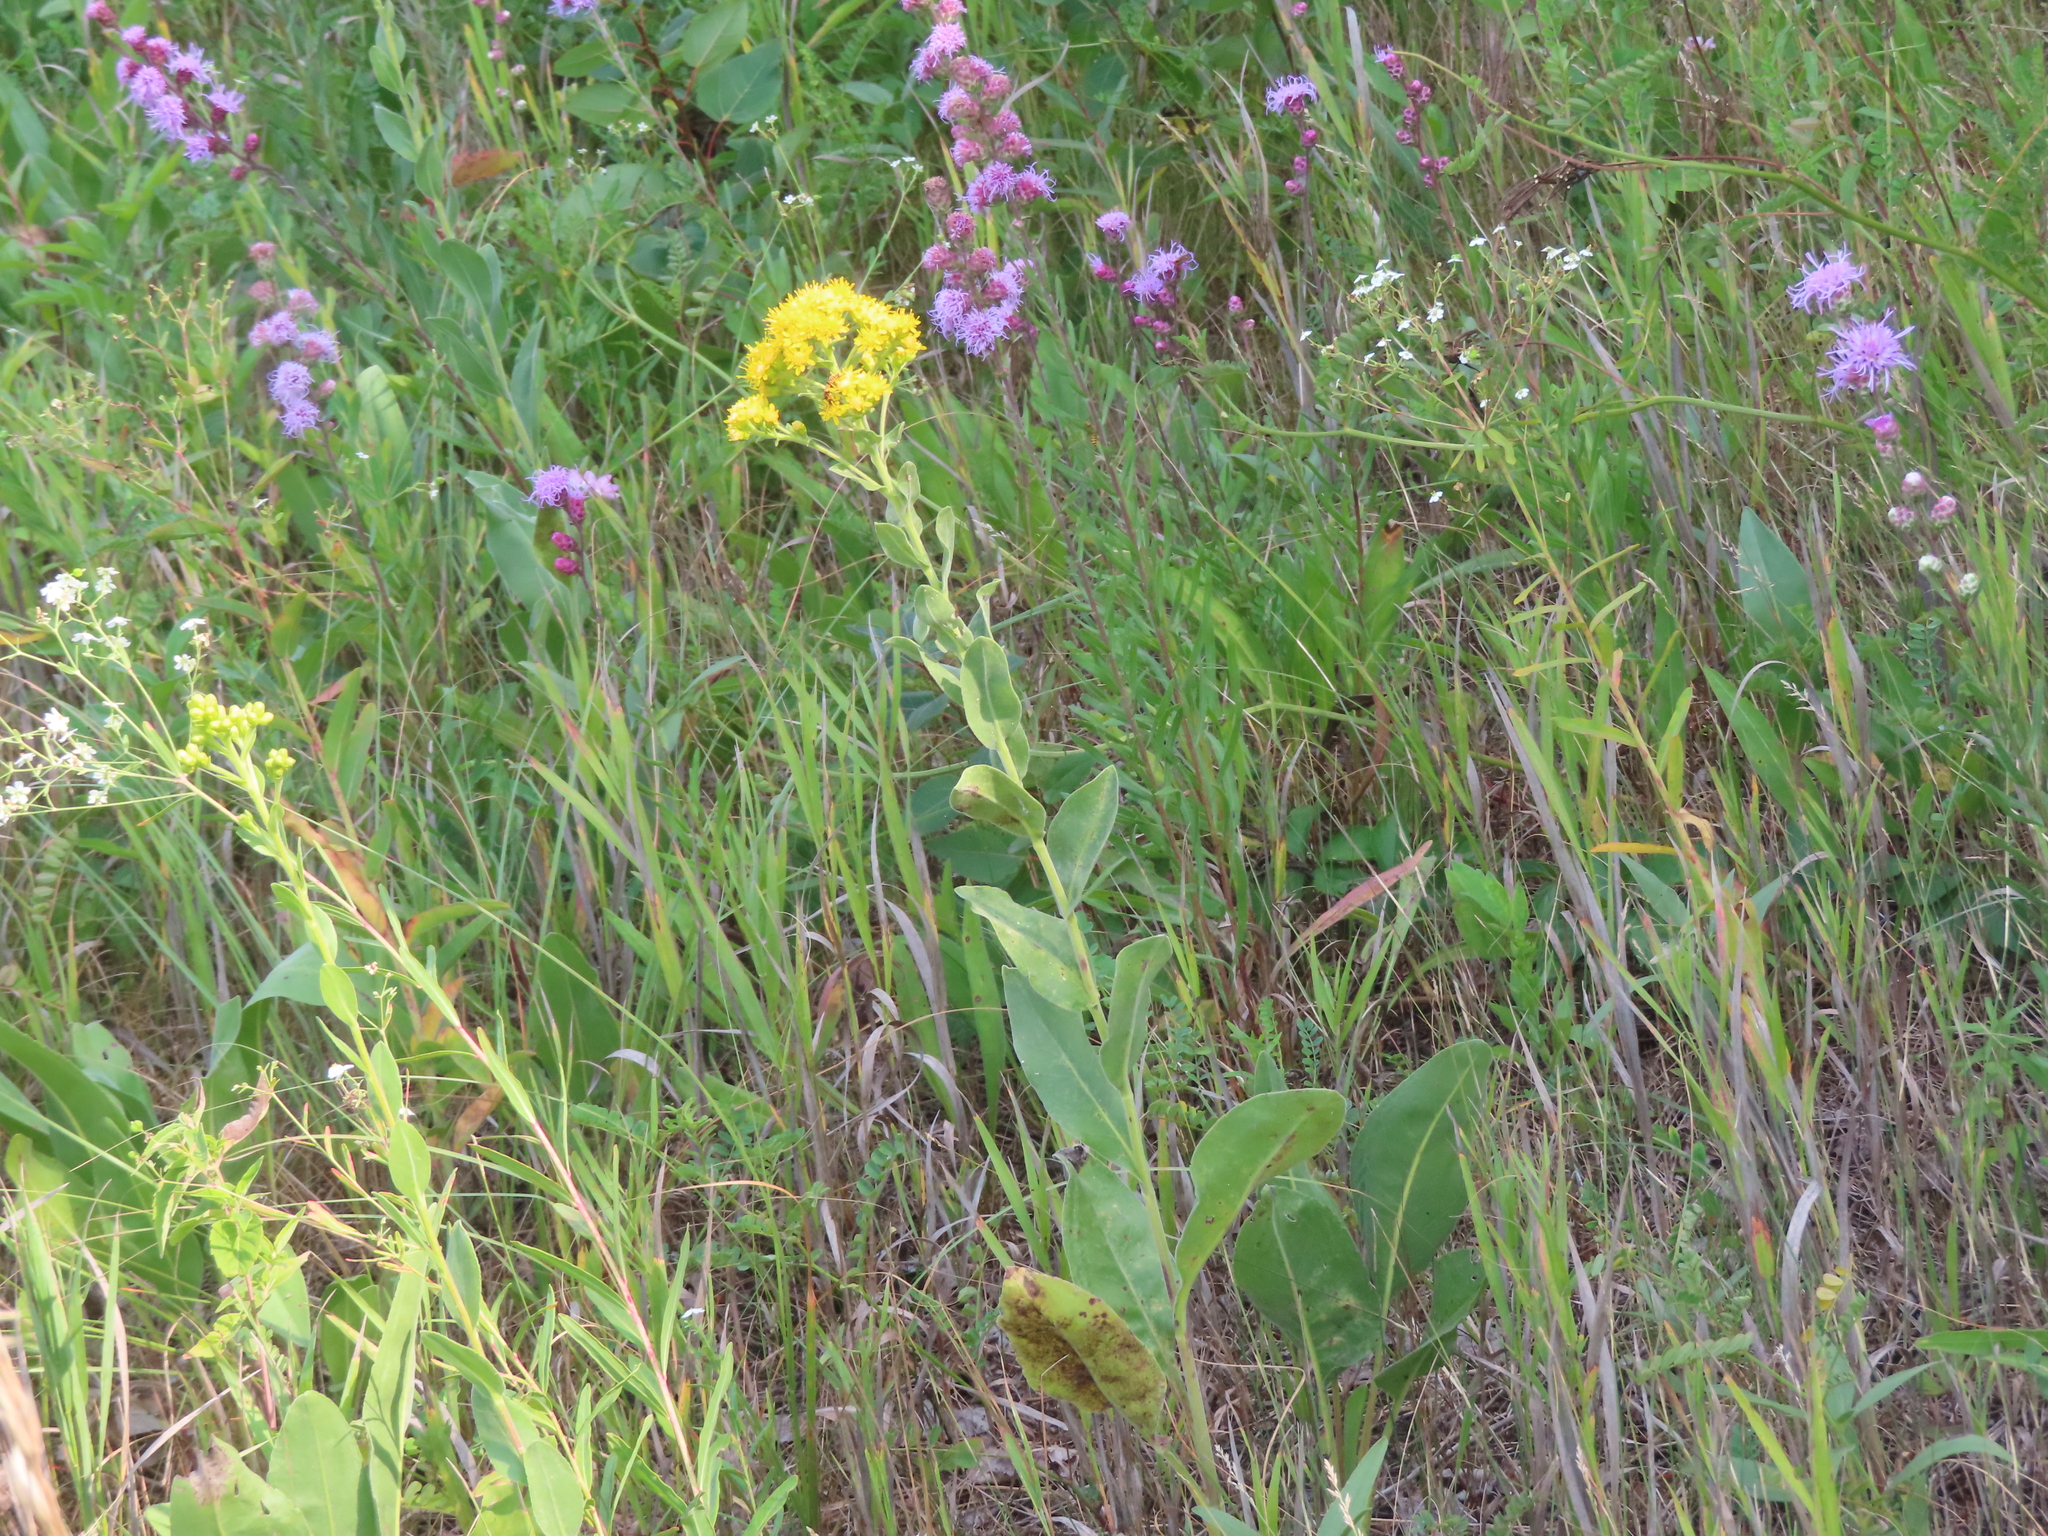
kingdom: Plantae
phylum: Tracheophyta
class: Magnoliopsida
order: Asterales
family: Asteraceae
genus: Solidago
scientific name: Solidago rigida
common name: Rigid goldenrod
